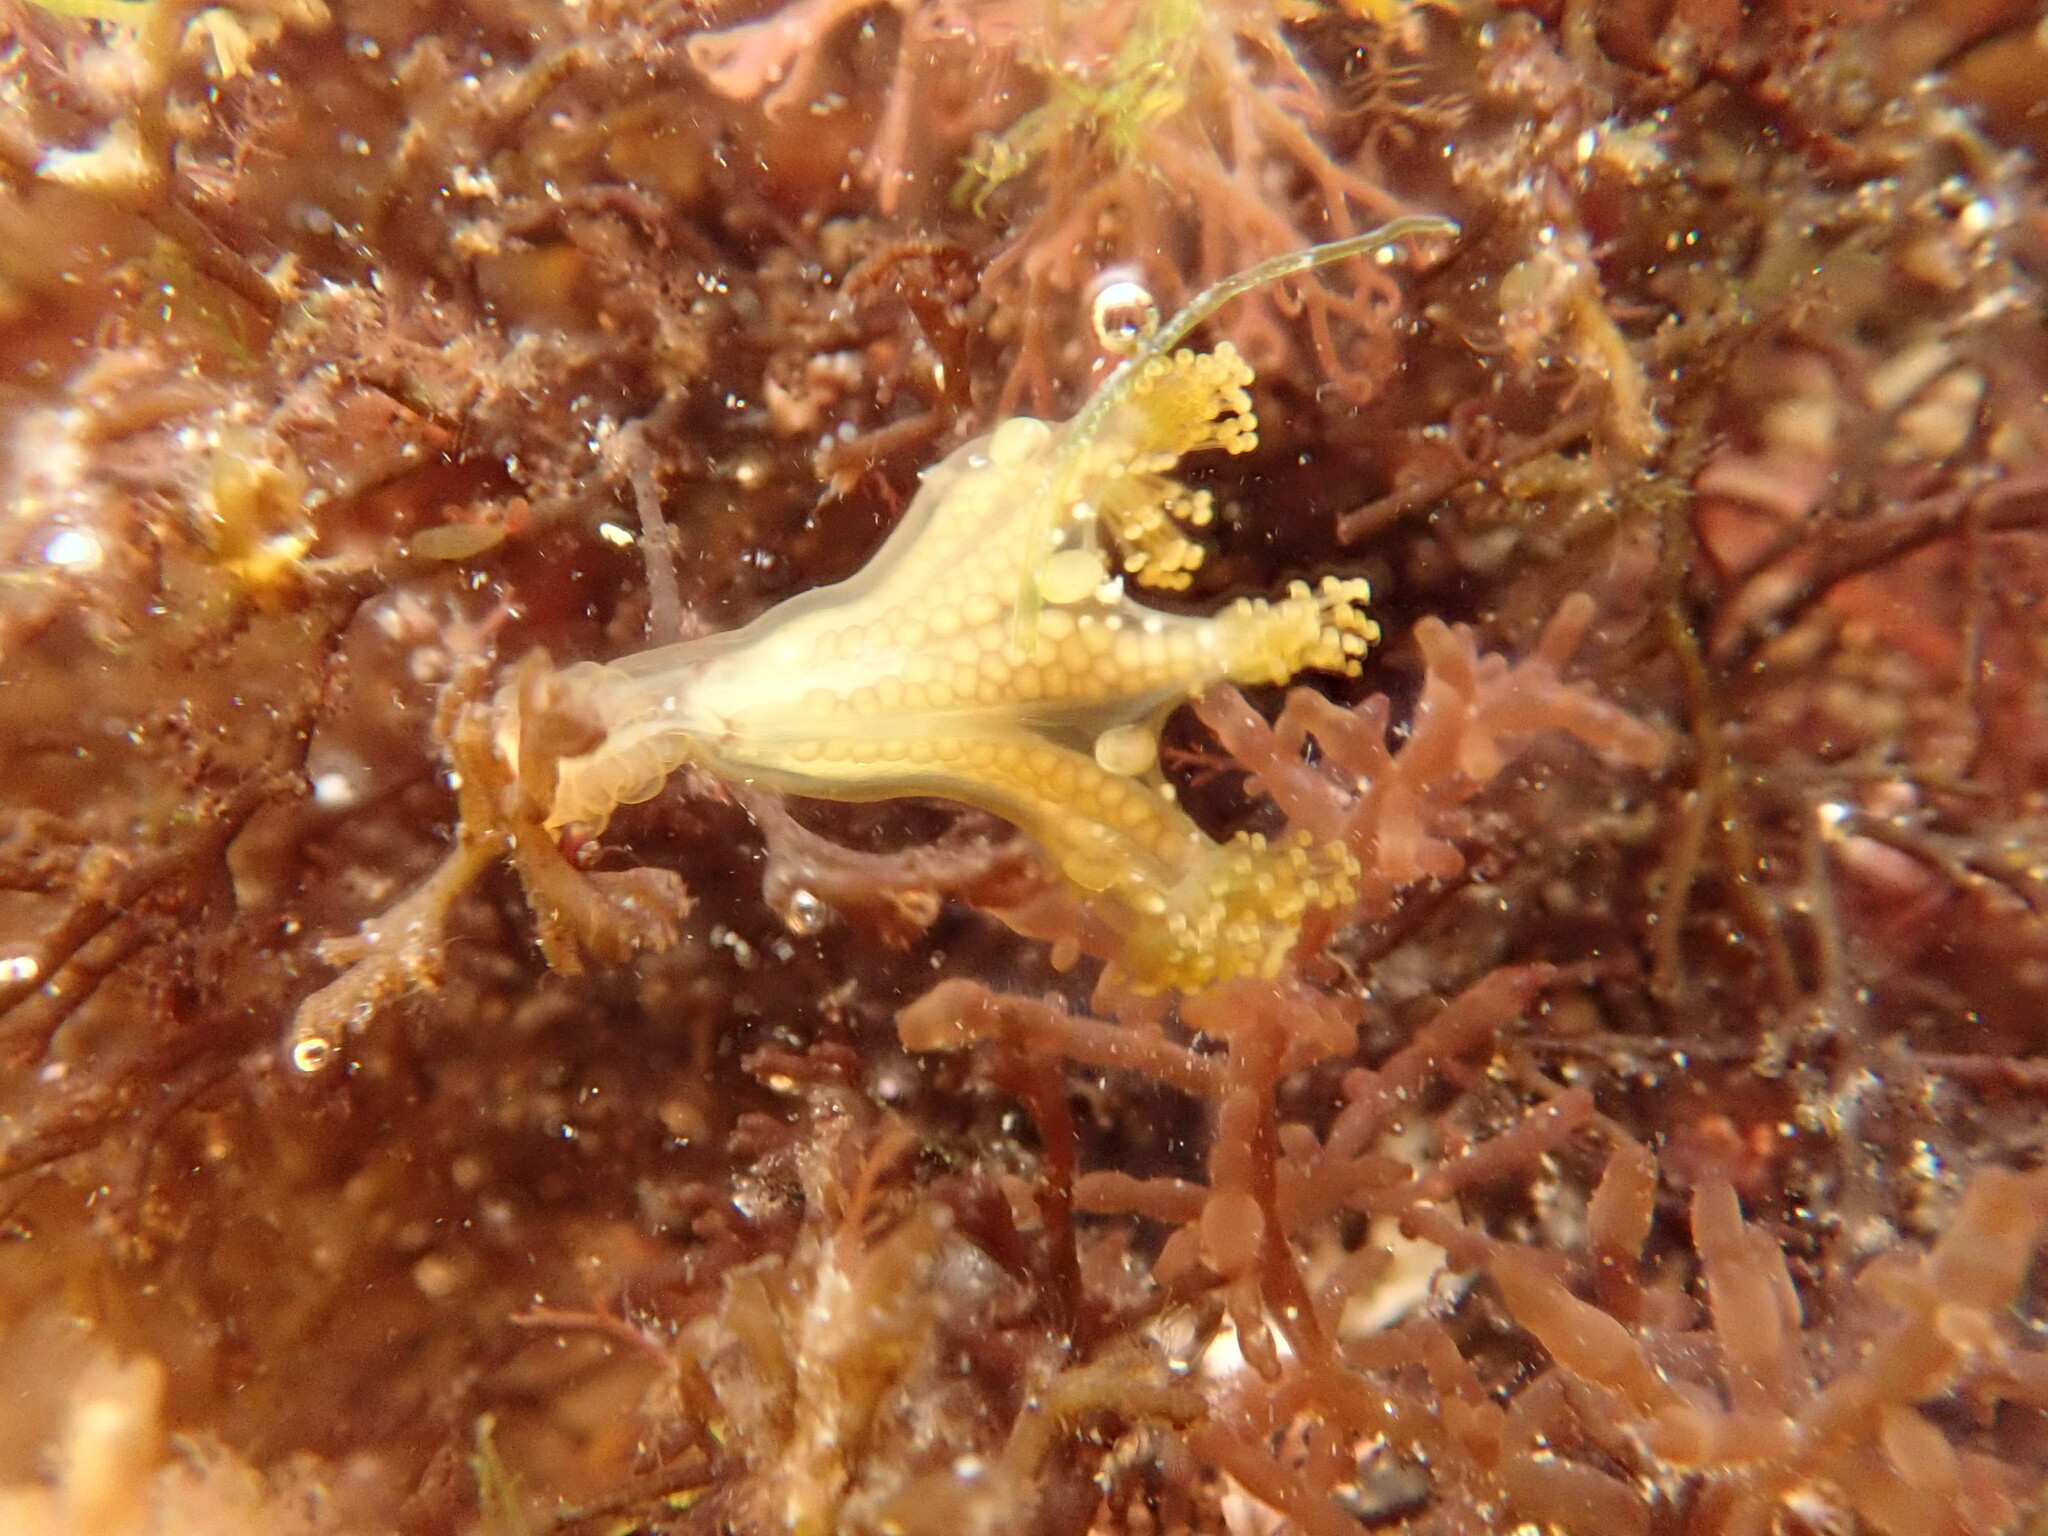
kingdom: Animalia
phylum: Cnidaria
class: Staurozoa
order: Stauromedusae
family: Haliclystidae
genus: Haliclystus
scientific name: Haliclystus octoradiatus
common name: Octaradiate stalked jellyfish
